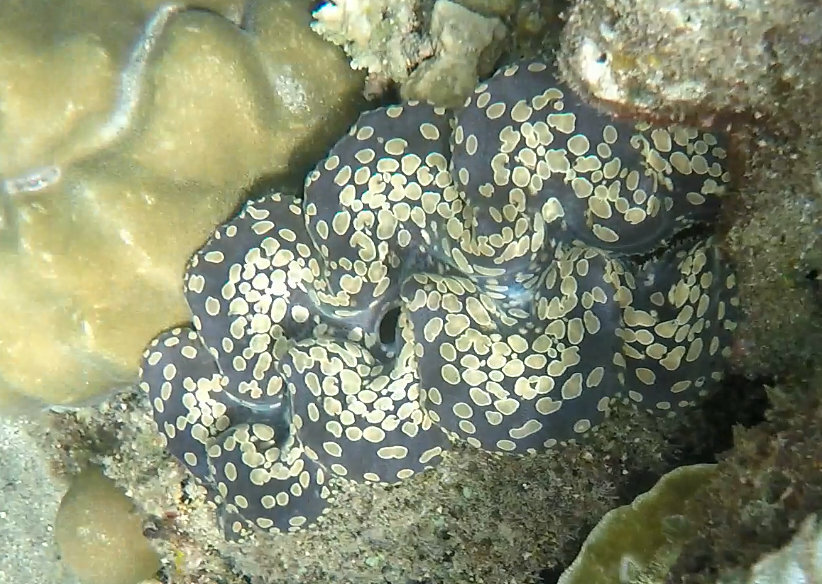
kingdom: Animalia
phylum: Mollusca
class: Bivalvia
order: Cardiida
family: Cardiidae
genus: Tridacna
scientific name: Tridacna noae
